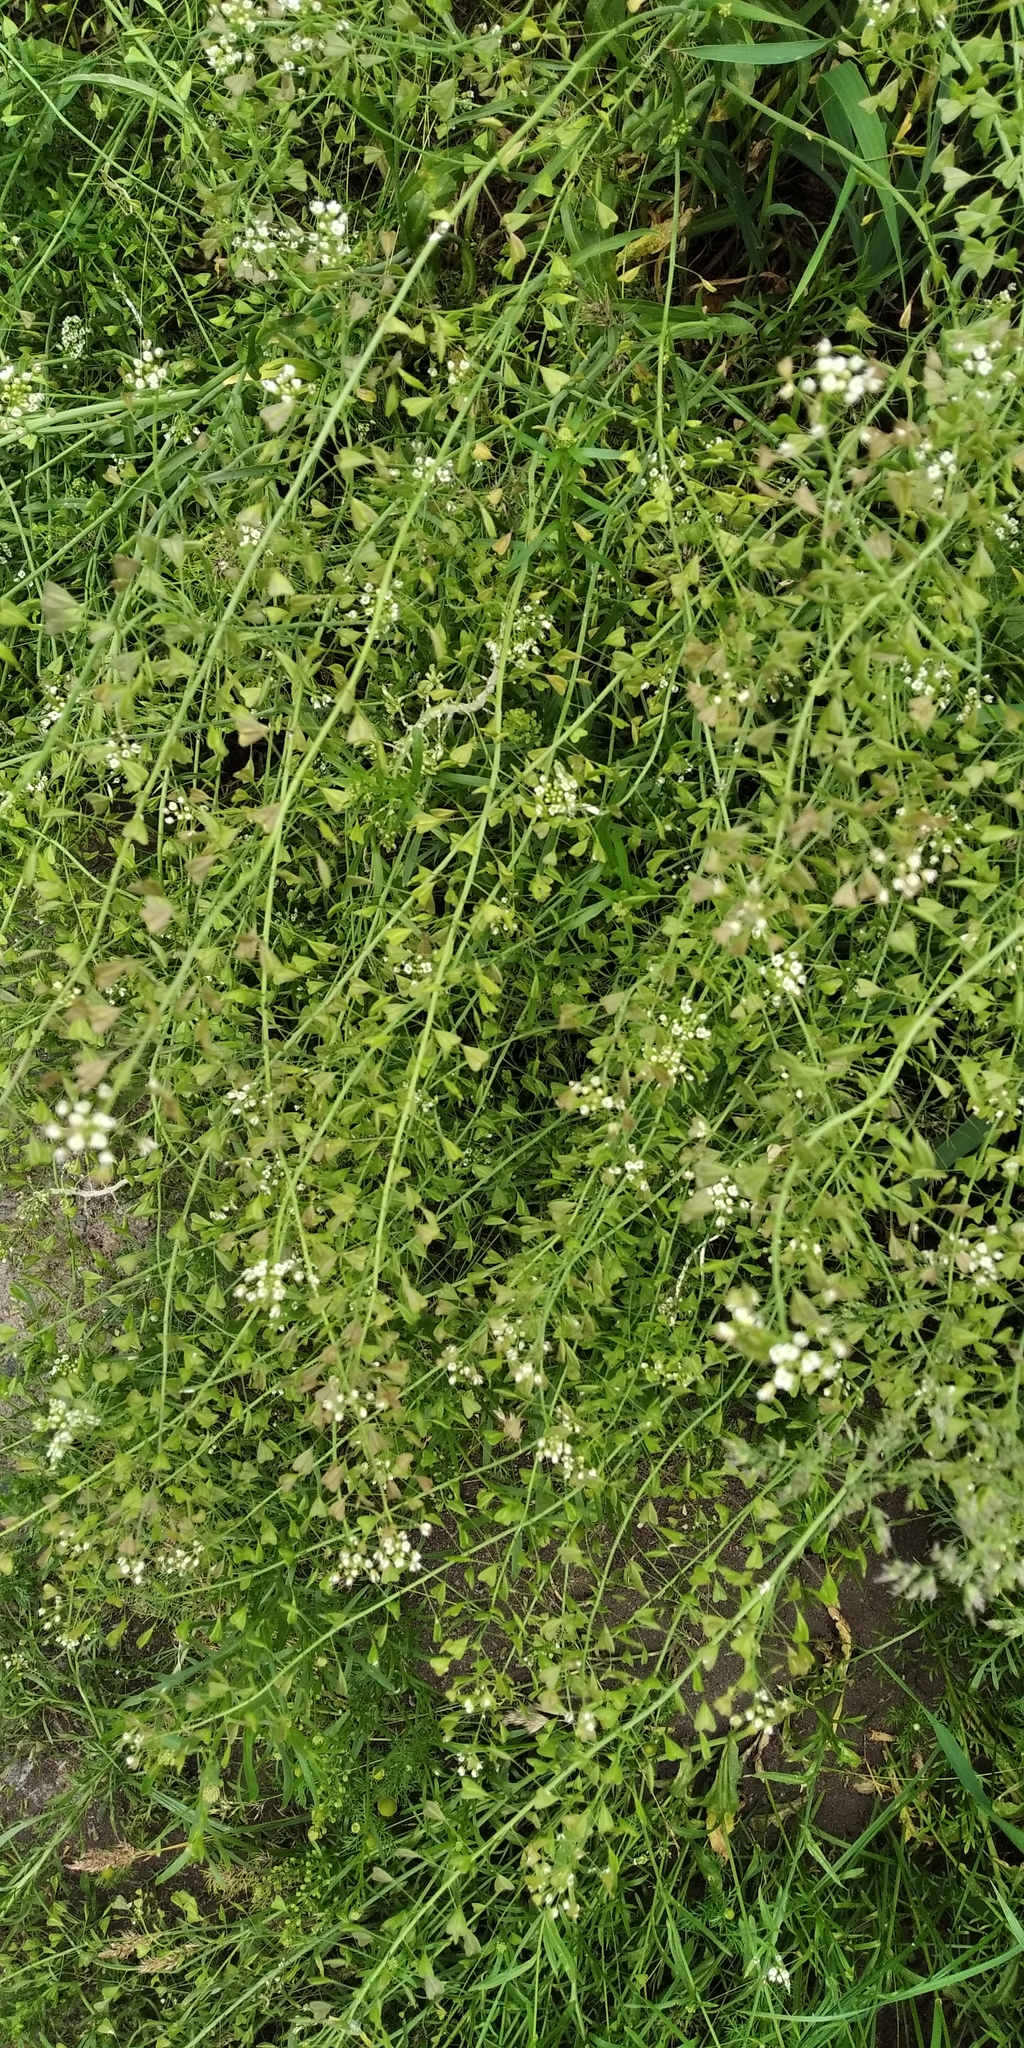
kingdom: Plantae
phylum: Tracheophyta
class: Magnoliopsida
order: Brassicales
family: Brassicaceae
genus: Capsella
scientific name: Capsella bursa-pastoris
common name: Shepherd's purse
